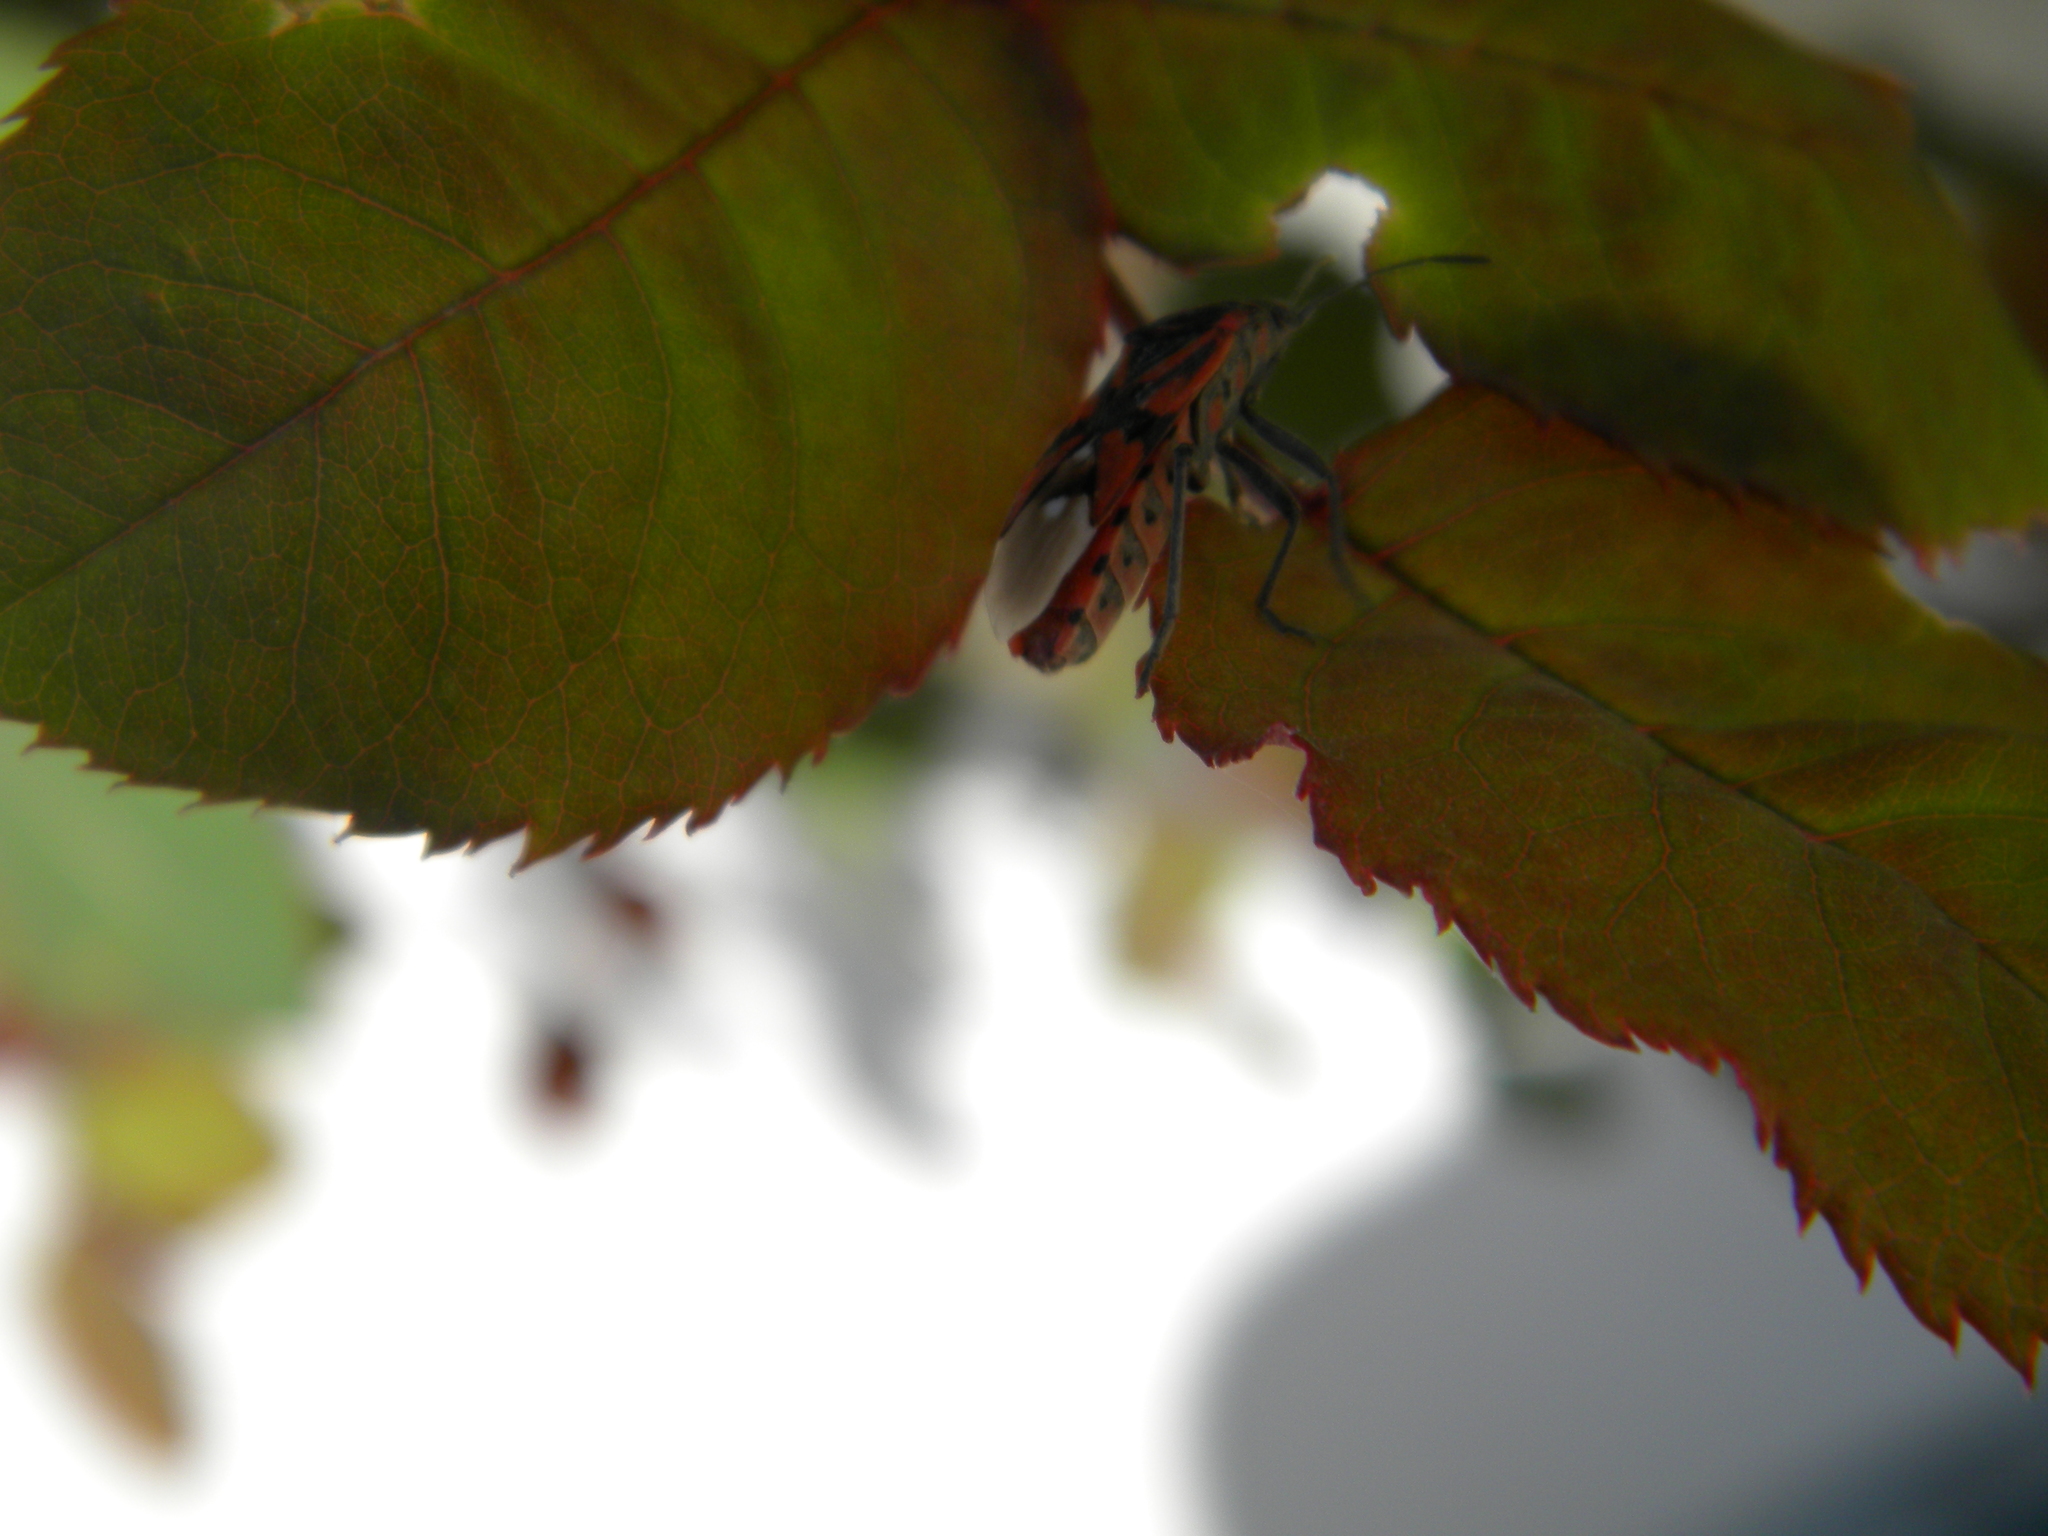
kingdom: Animalia
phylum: Arthropoda
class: Insecta
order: Hemiptera
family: Lygaeidae
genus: Spilostethus
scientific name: Spilostethus pandurus
